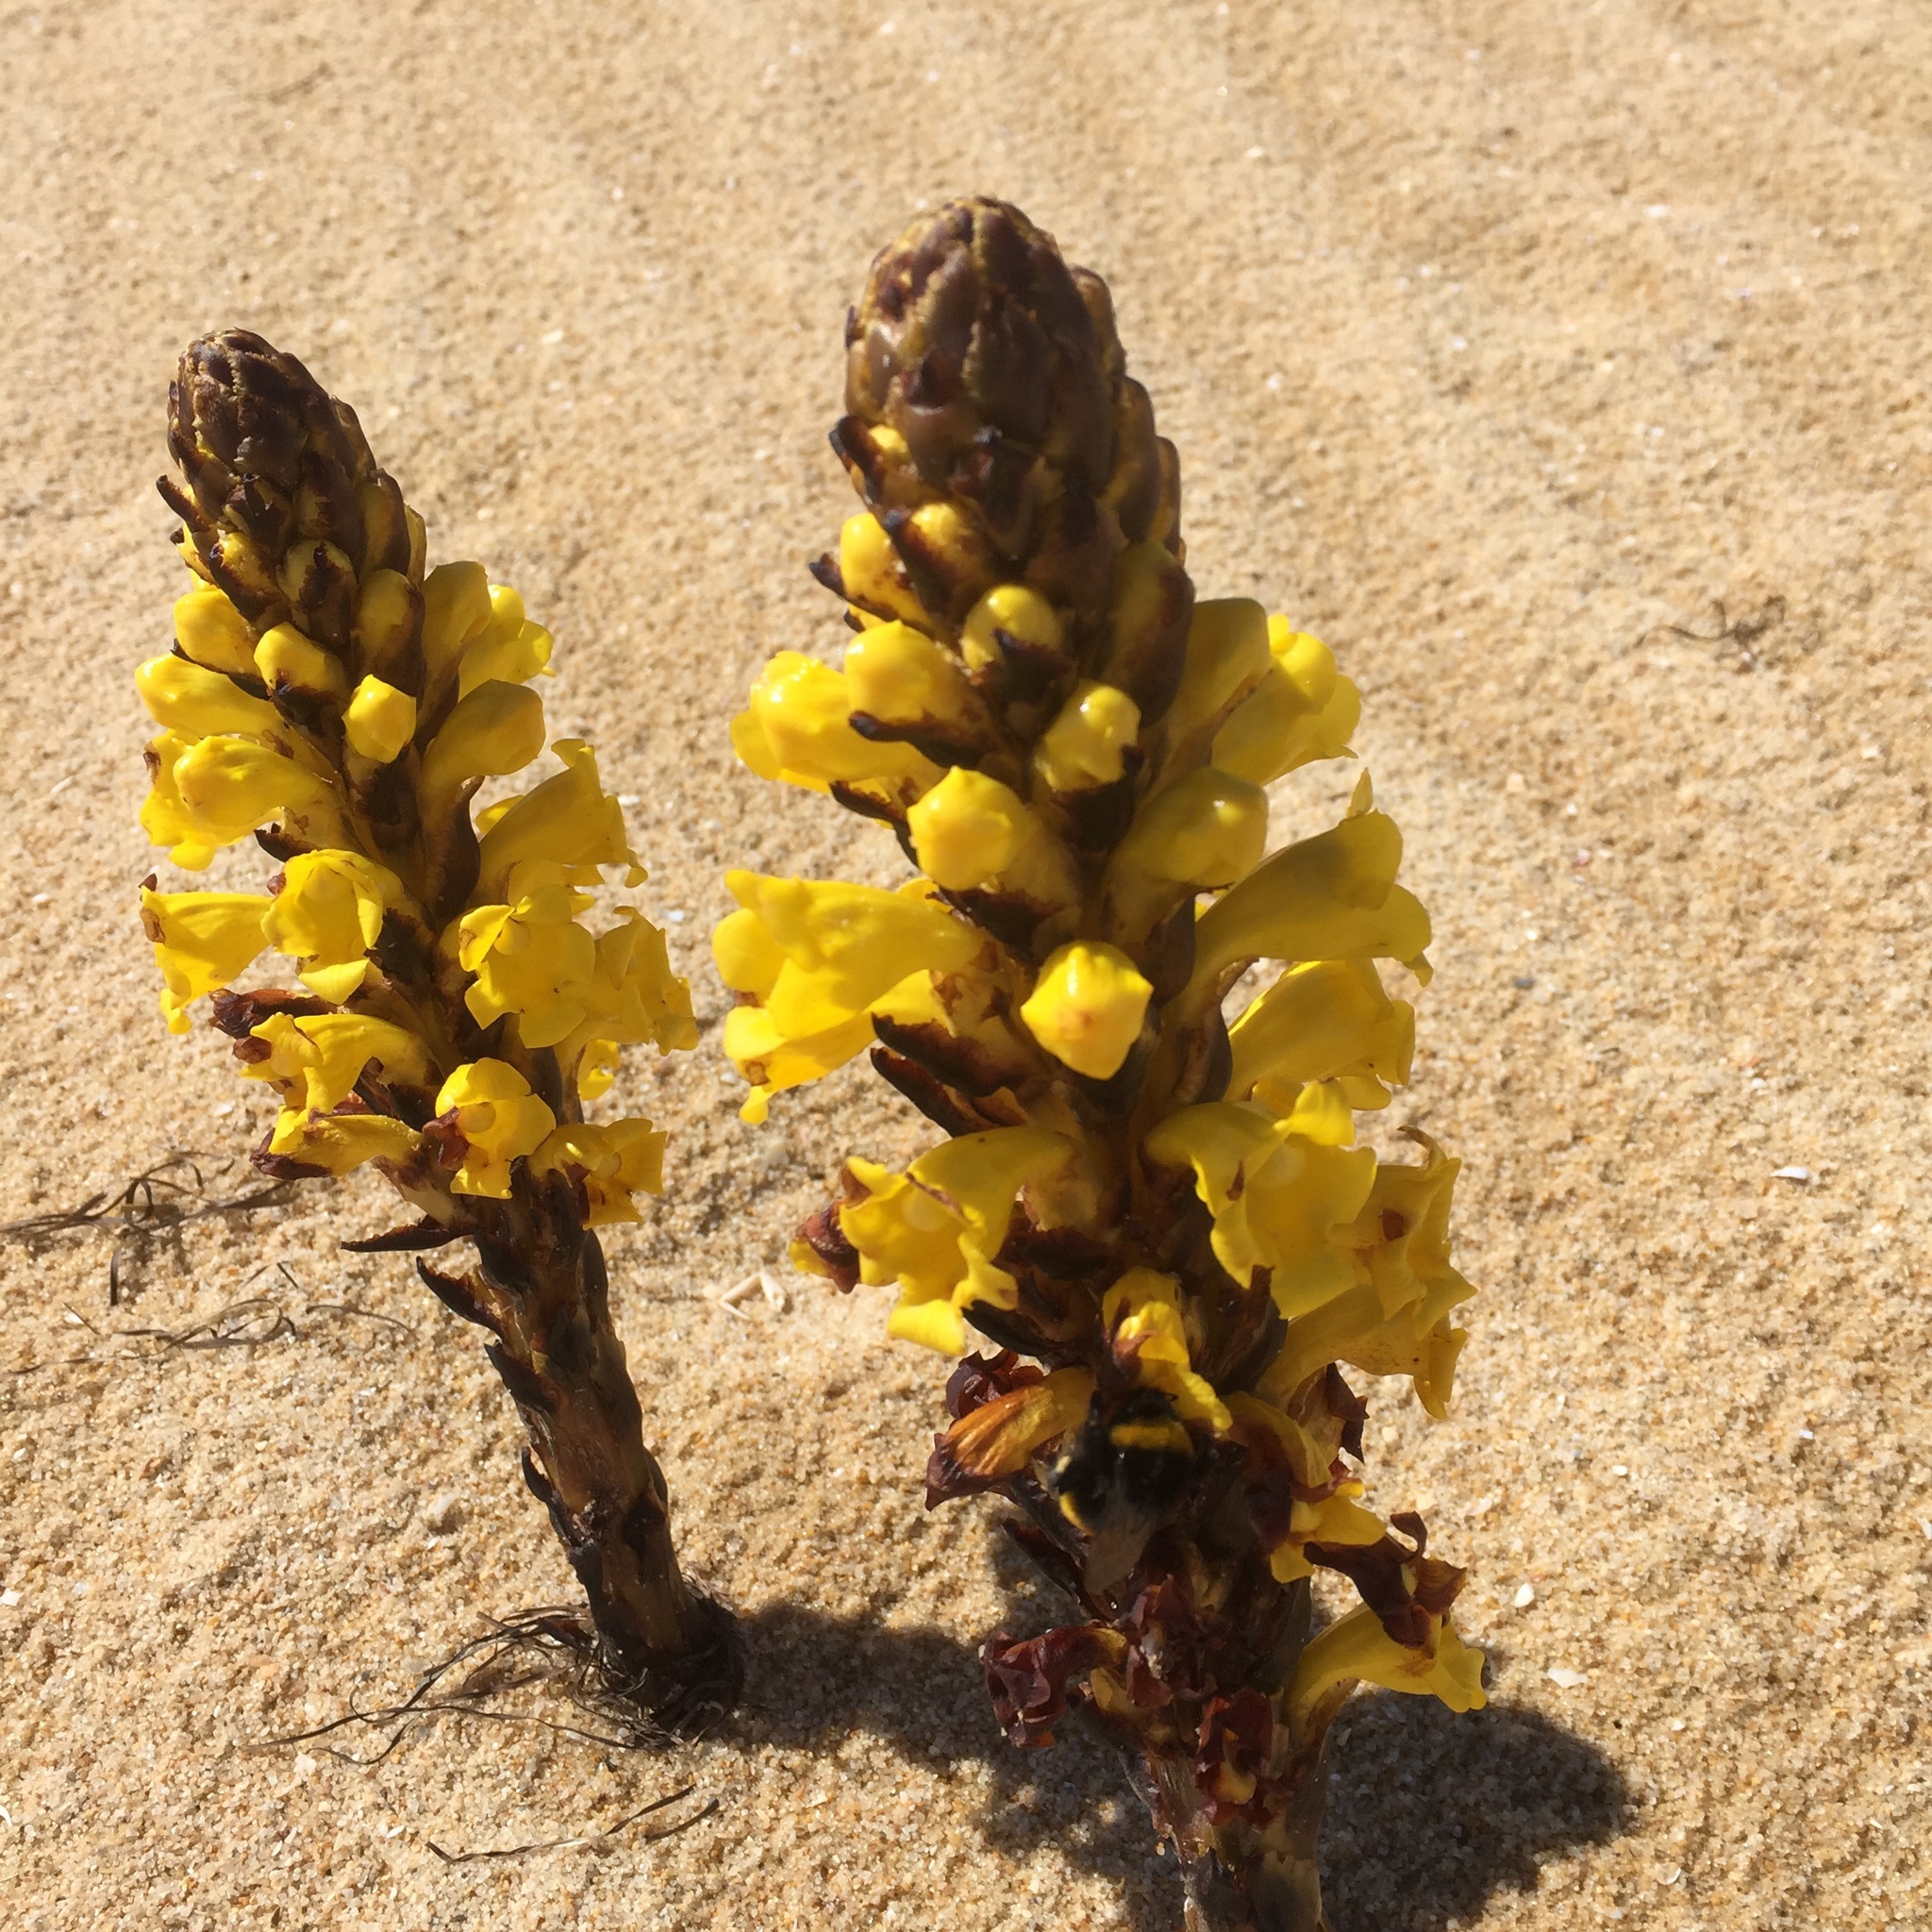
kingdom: Plantae
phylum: Tracheophyta
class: Magnoliopsida
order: Lamiales
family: Orobanchaceae
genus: Cistanche
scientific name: Cistanche phelypaea
